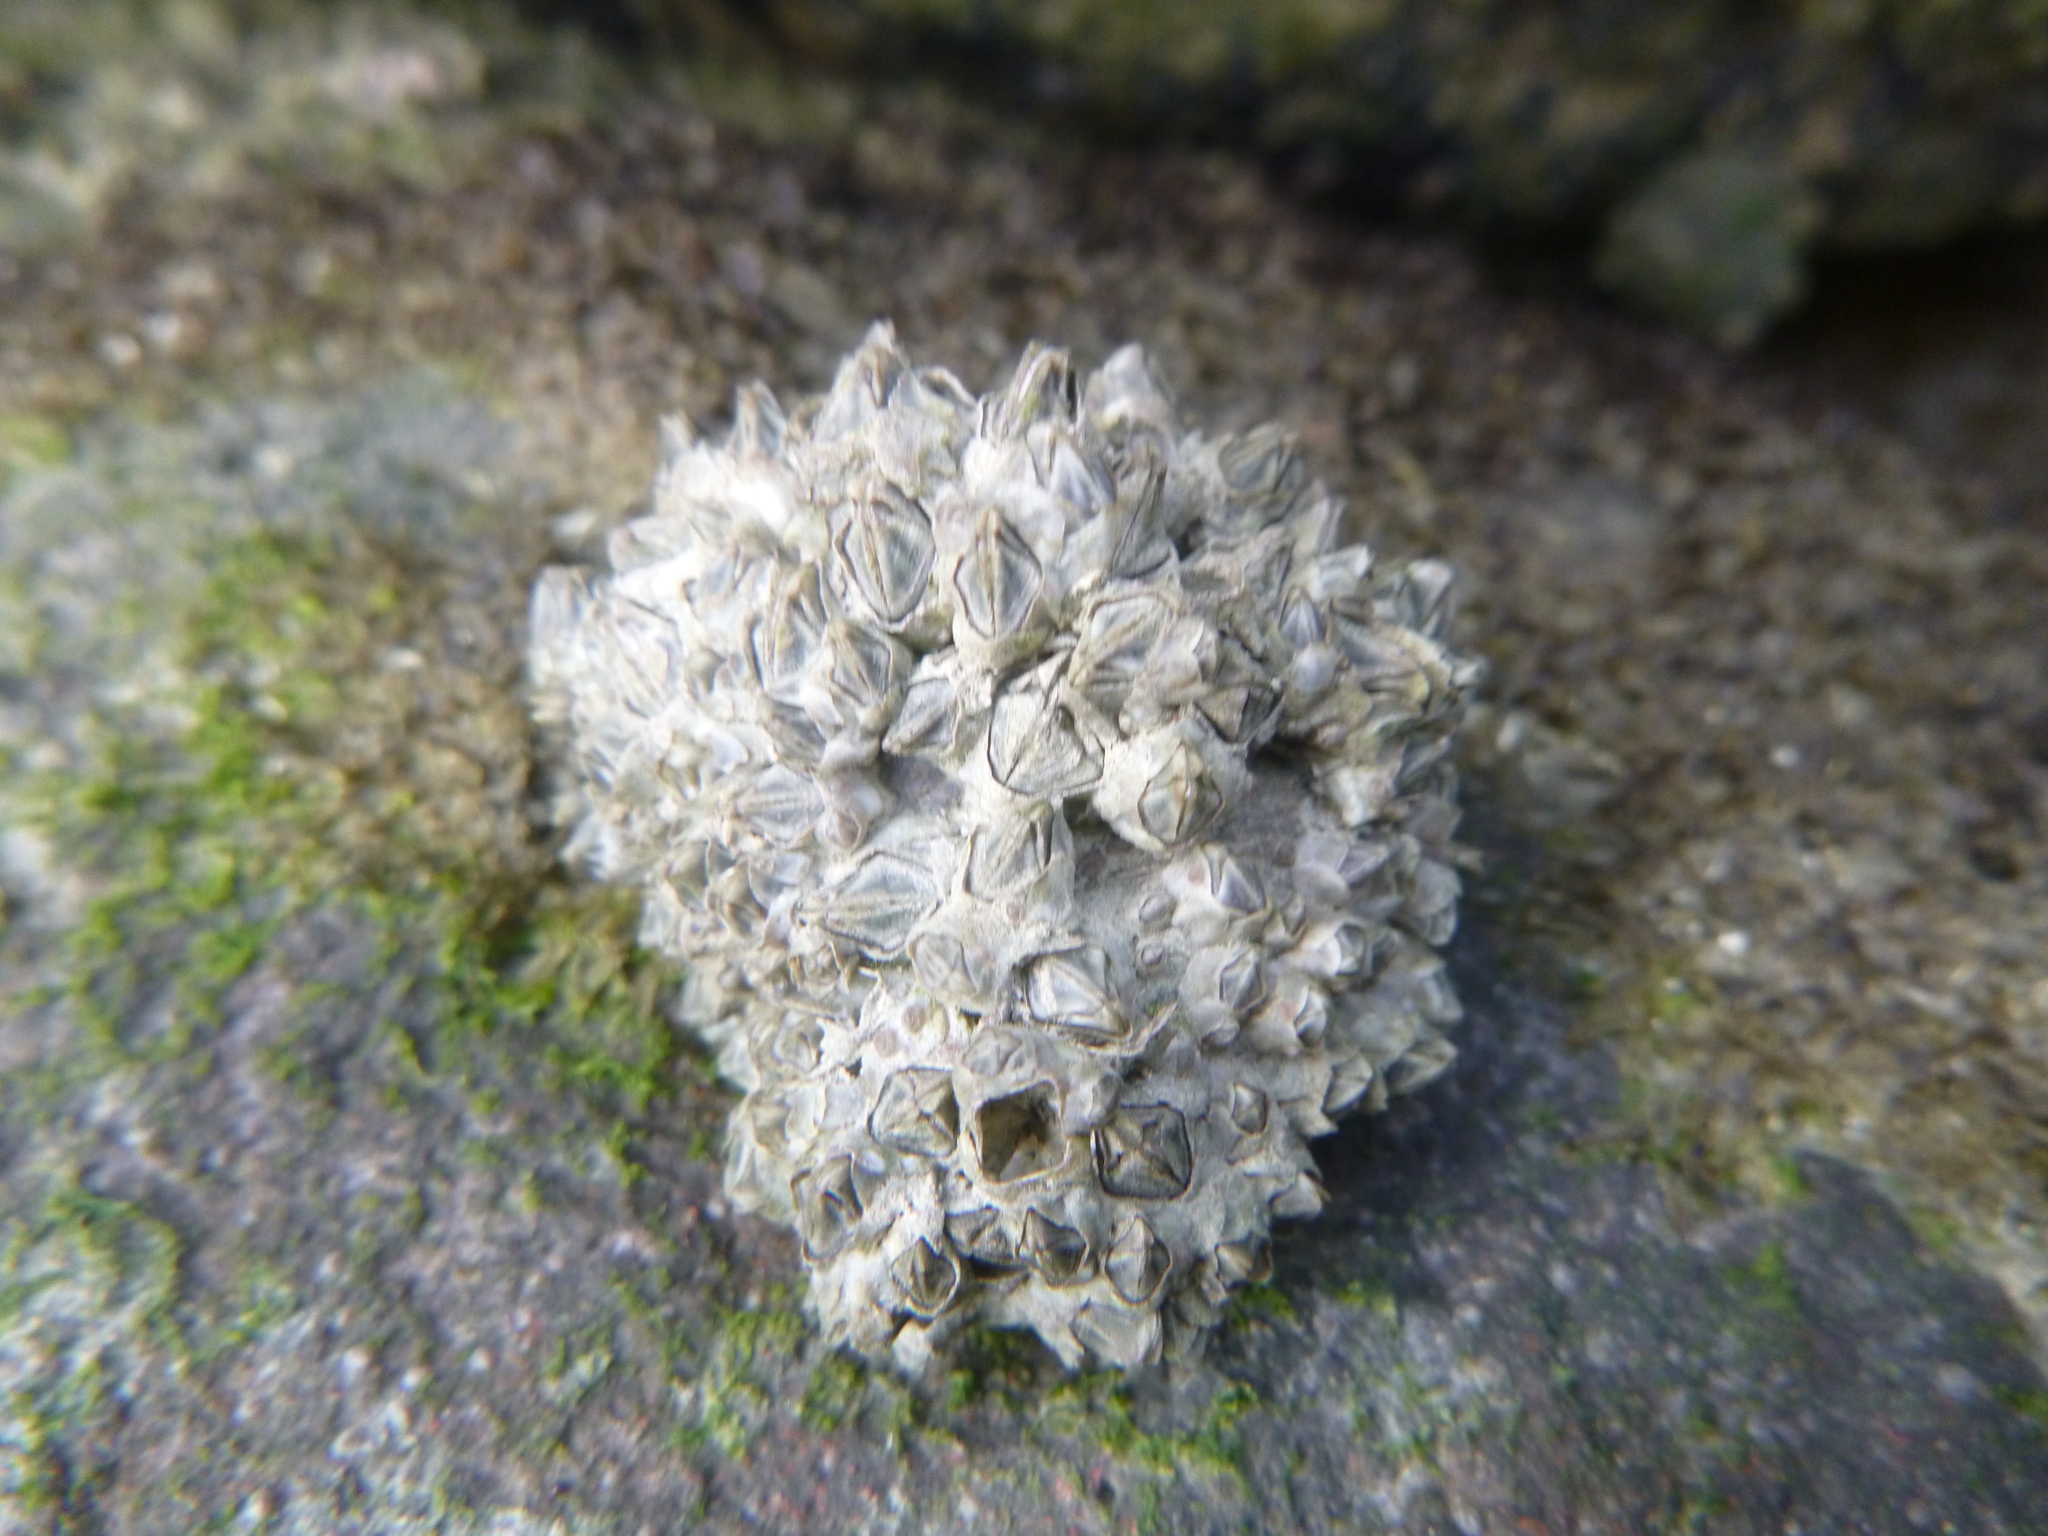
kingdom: Animalia
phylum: Arthropoda
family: Elminiidae
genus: Austrominius
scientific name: Austrominius modestus
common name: Australasian barnacle
